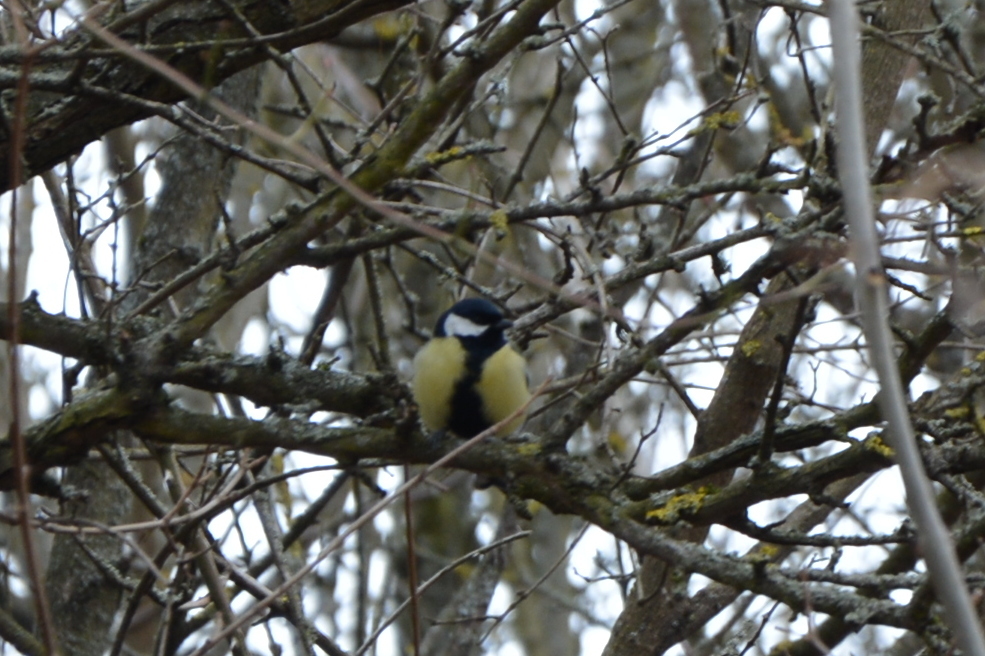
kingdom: Animalia
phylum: Chordata
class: Aves
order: Passeriformes
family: Paridae
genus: Parus
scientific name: Parus major
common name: Great tit
